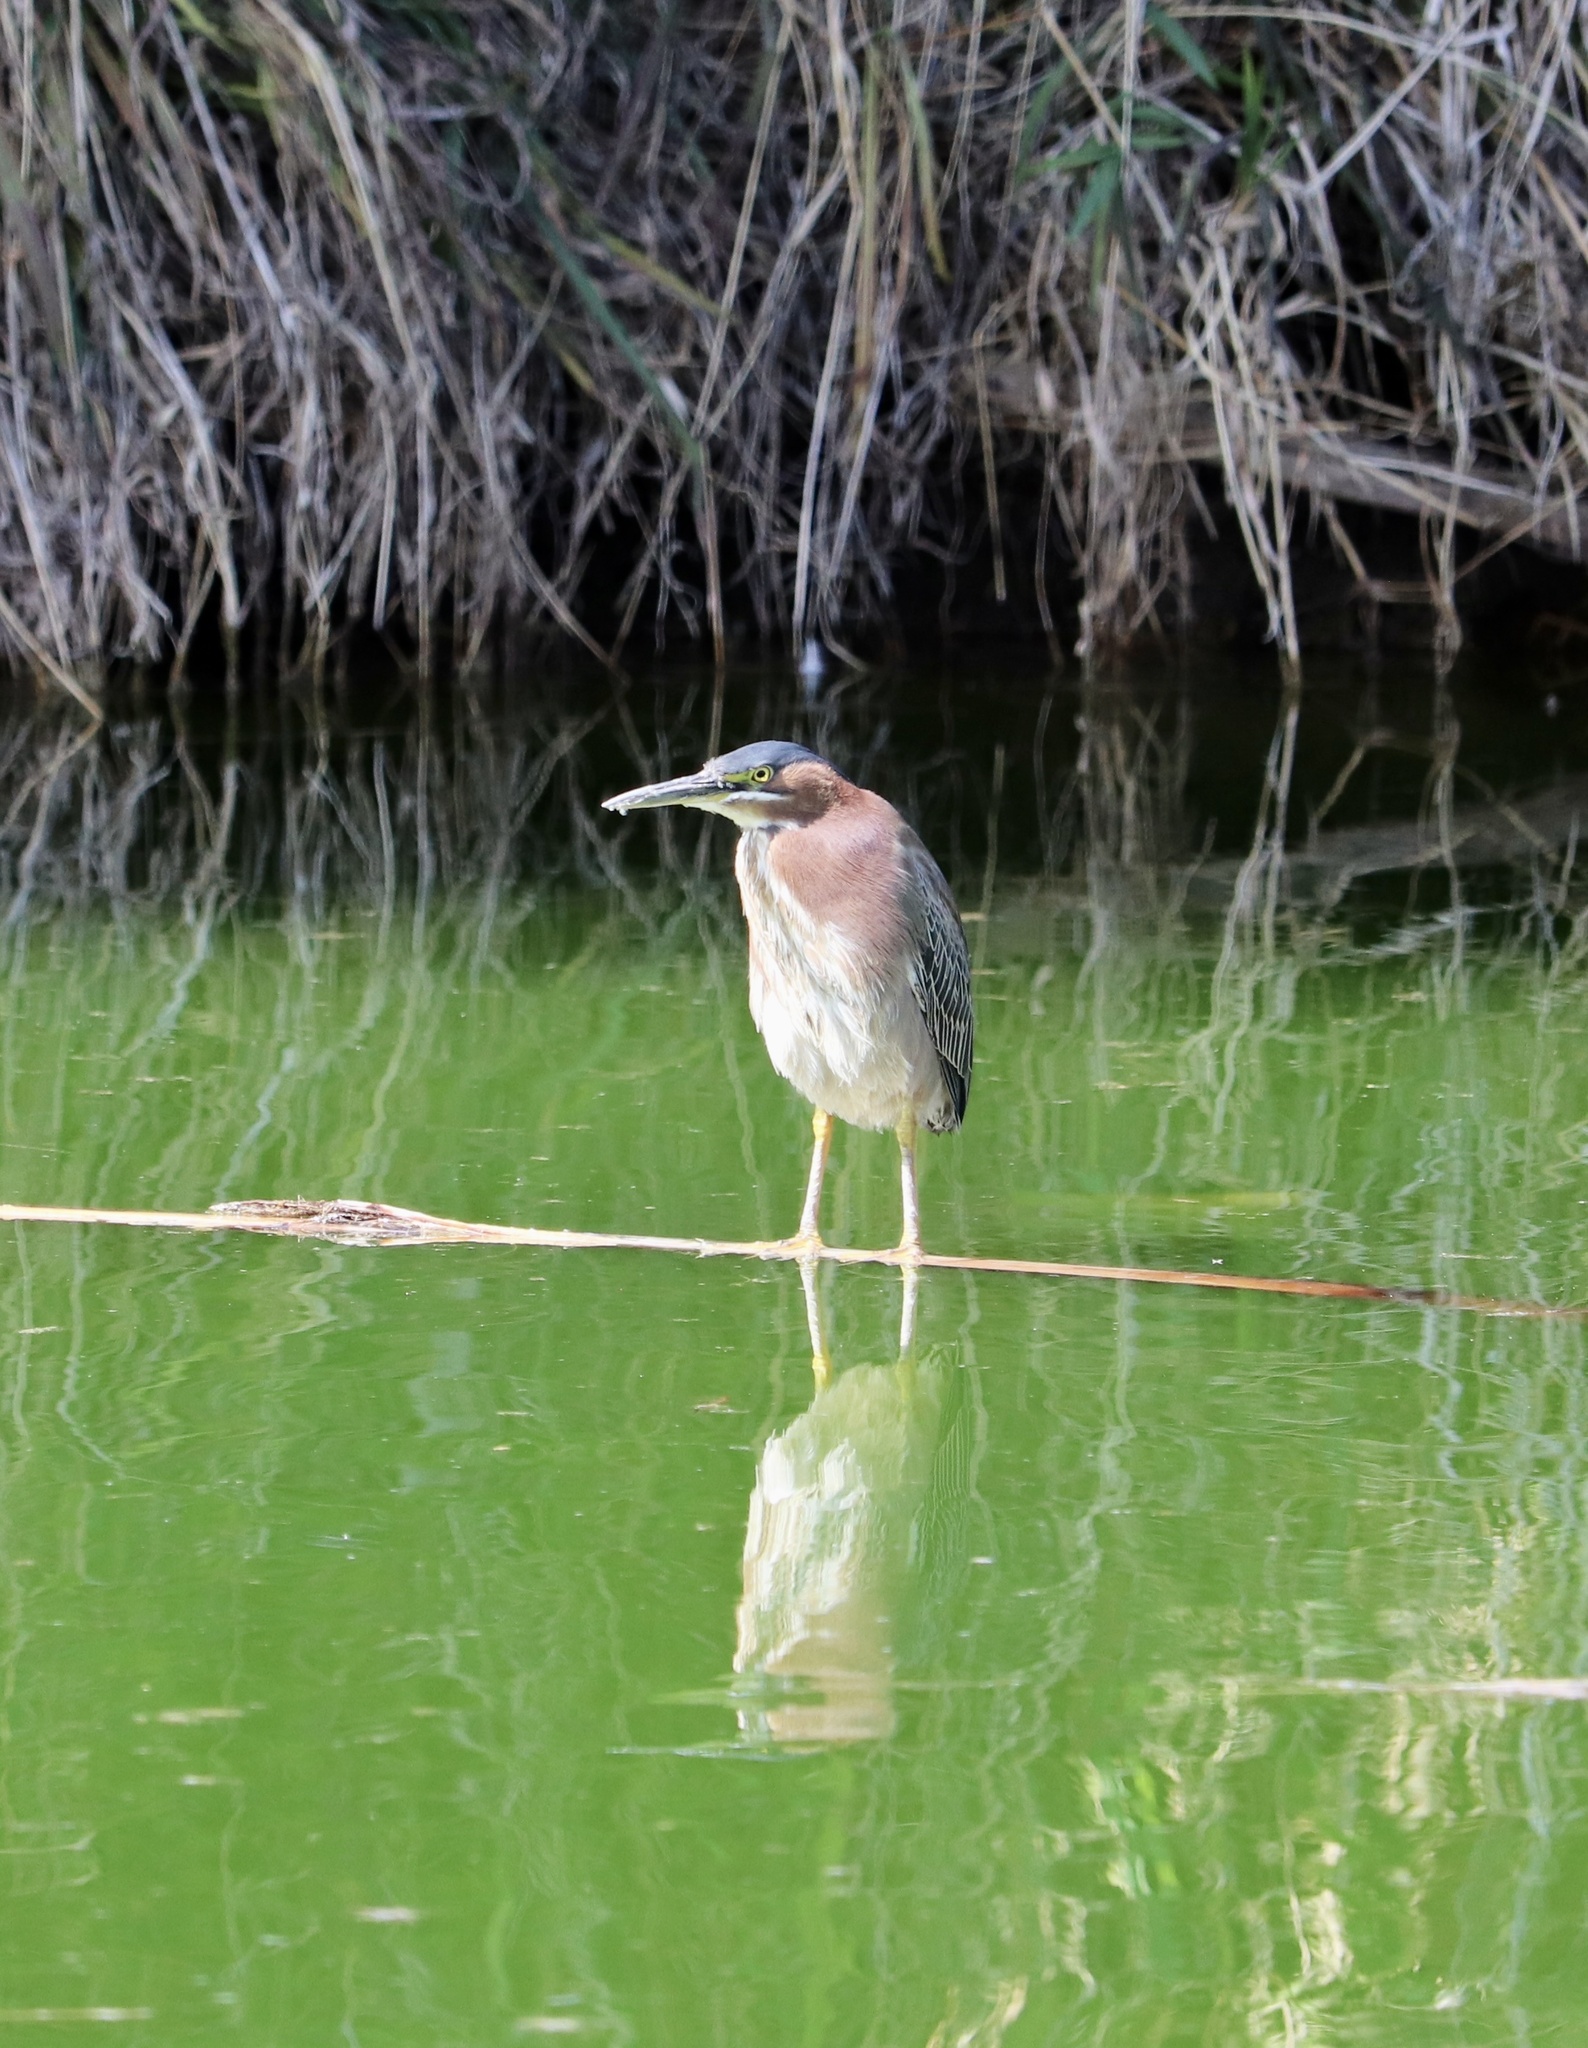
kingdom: Animalia
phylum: Chordata
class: Aves
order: Pelecaniformes
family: Ardeidae
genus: Butorides
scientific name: Butorides virescens
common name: Green heron
